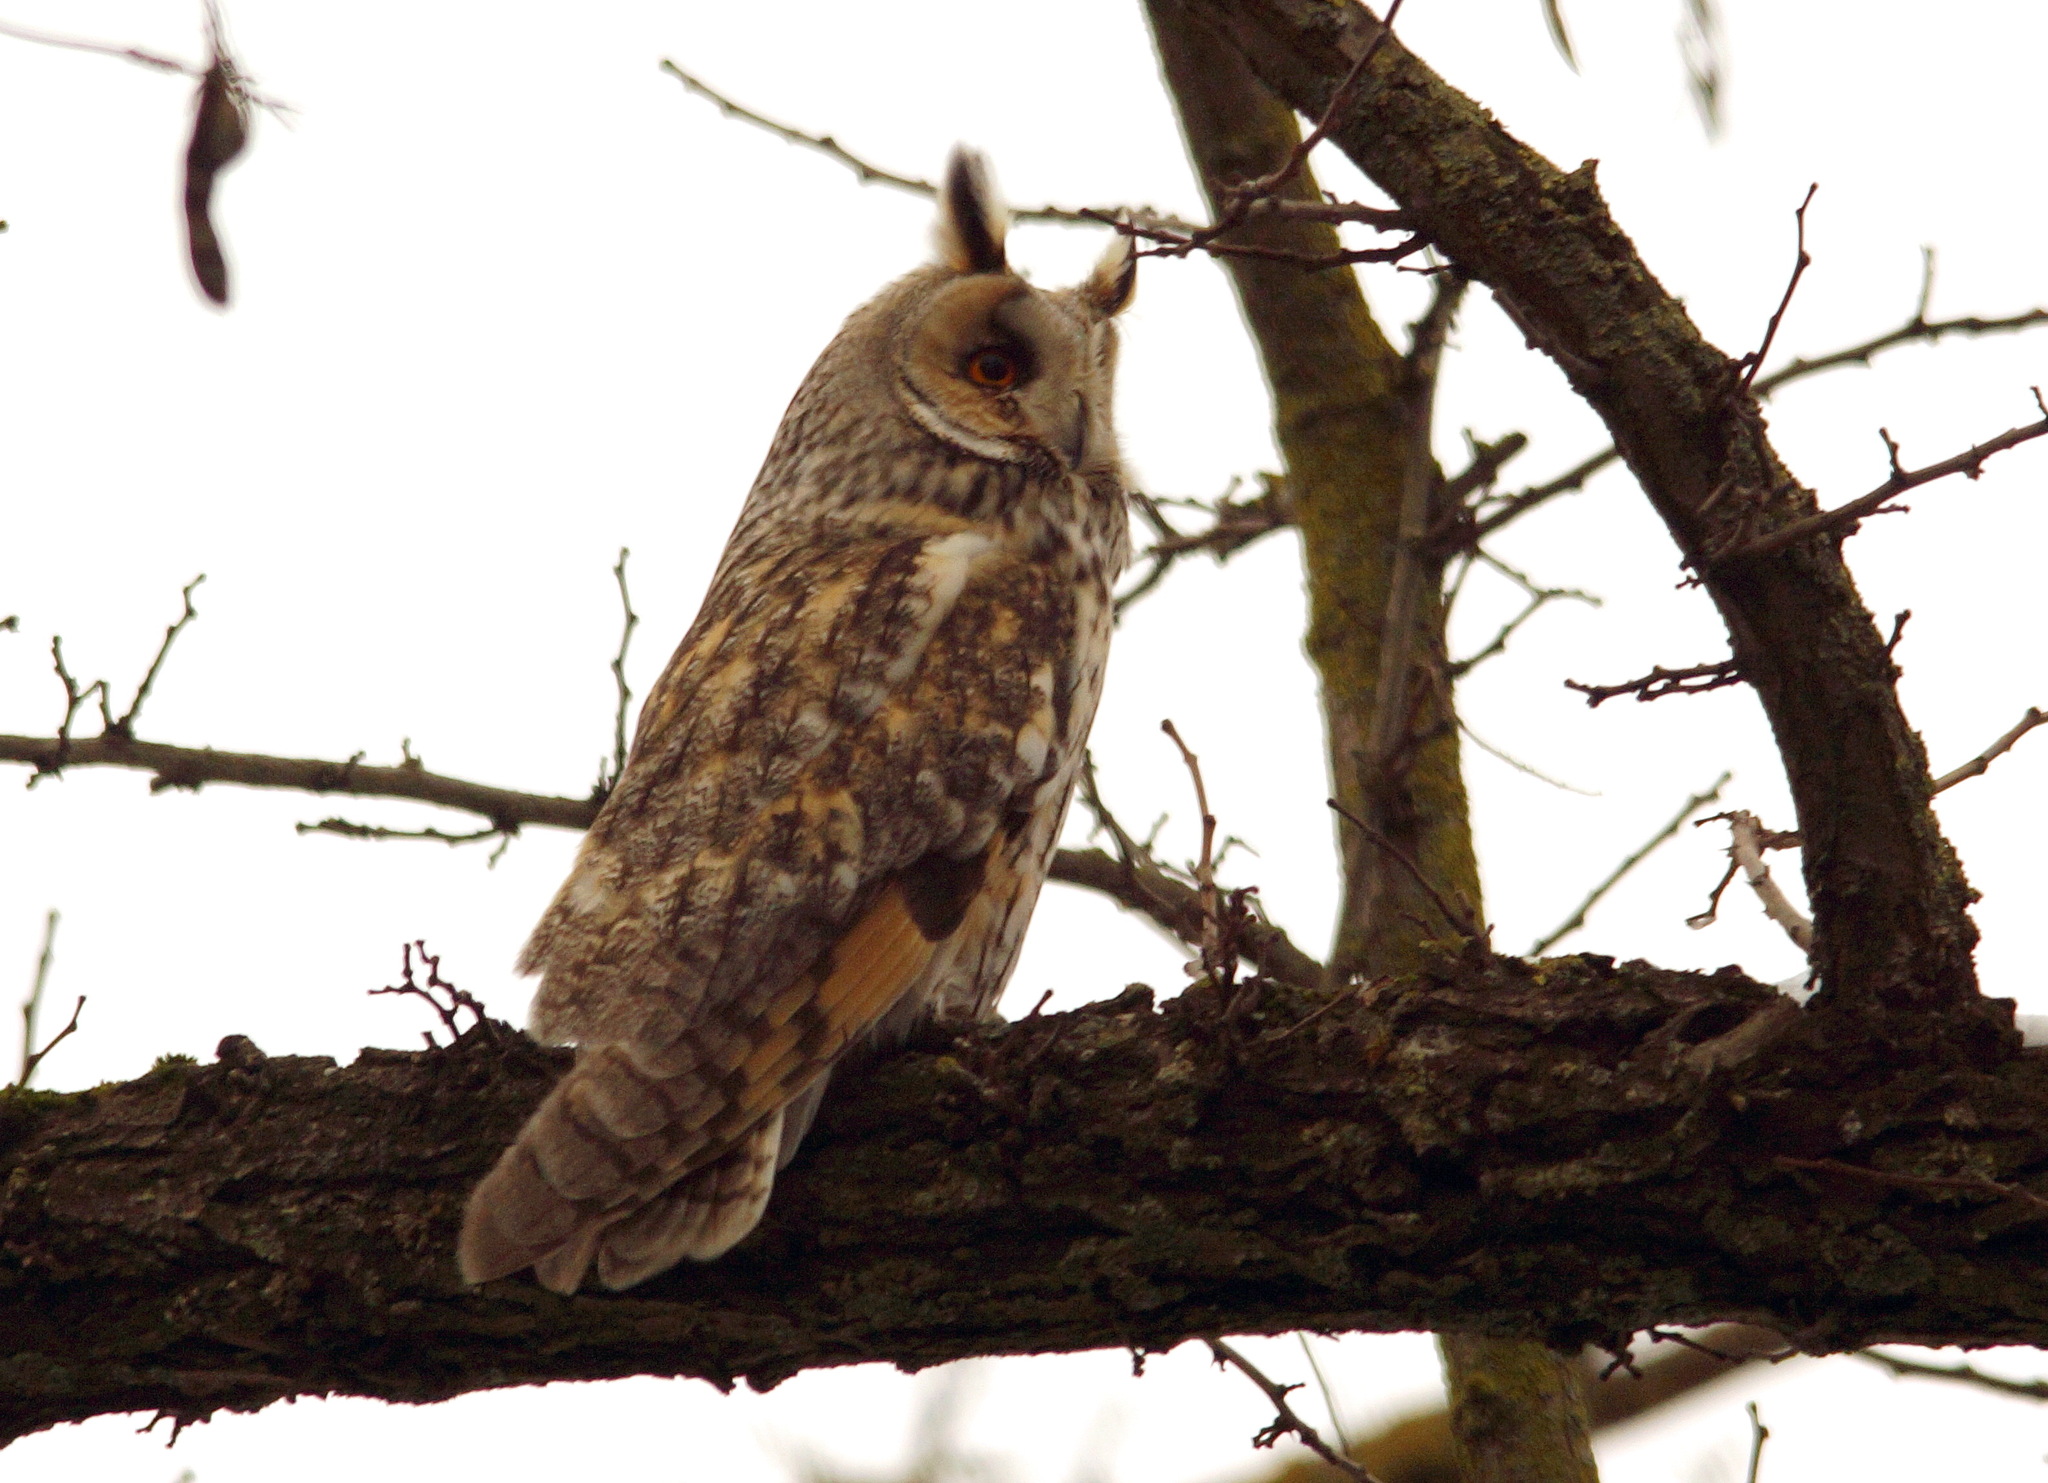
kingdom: Animalia
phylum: Chordata
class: Aves
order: Strigiformes
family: Strigidae
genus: Asio
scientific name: Asio otus
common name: Long-eared owl
